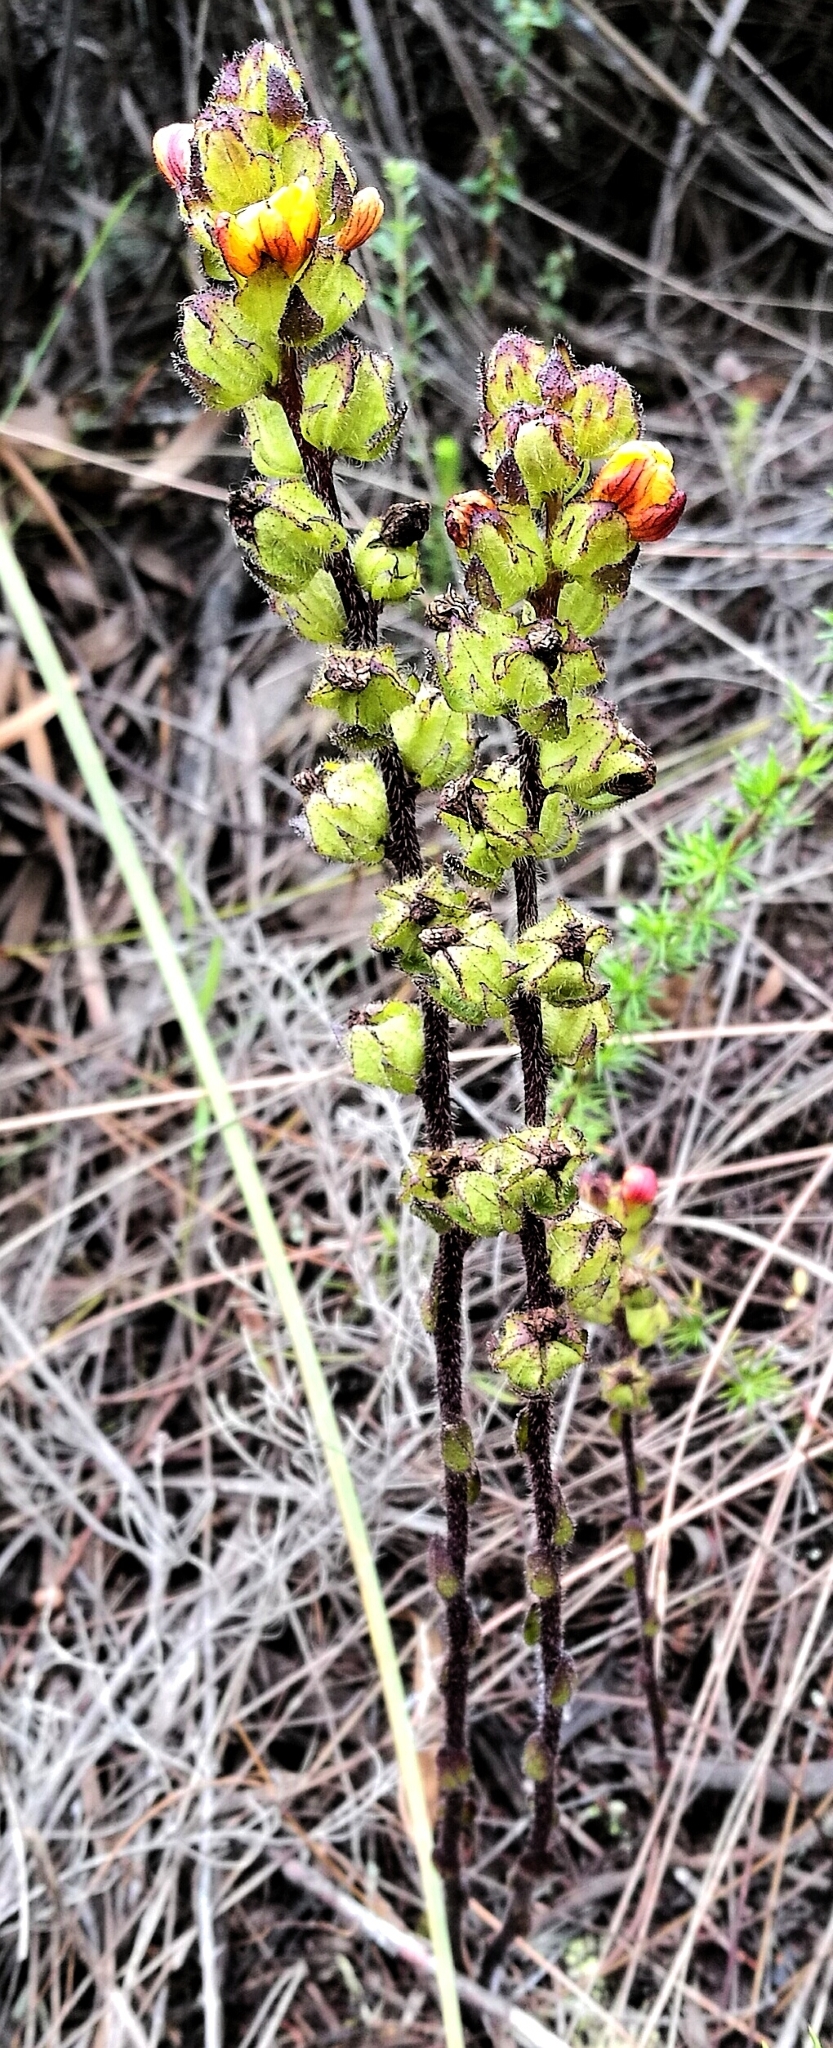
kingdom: Plantae
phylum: Tracheophyta
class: Magnoliopsida
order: Lamiales
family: Orobanchaceae
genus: Alectra
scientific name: Alectra sessiliflora
